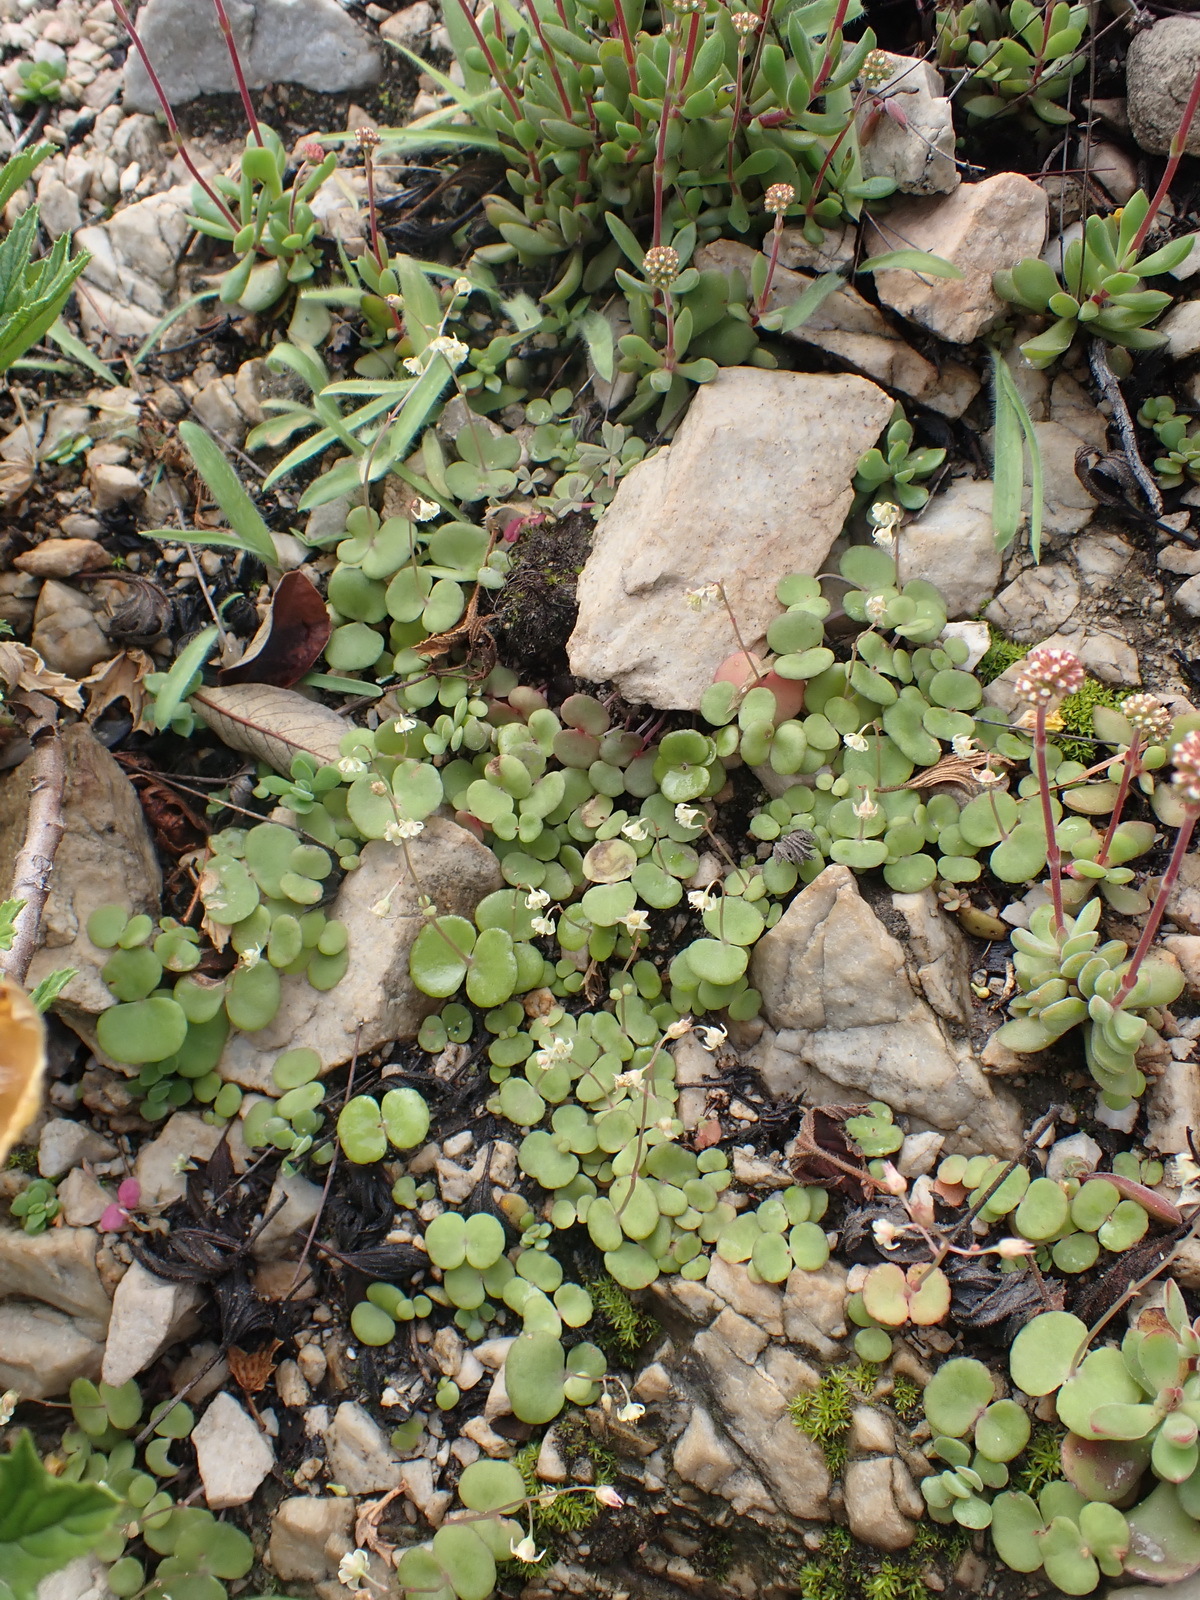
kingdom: Plantae
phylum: Tracheophyta
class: Magnoliopsida
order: Saxifragales
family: Crassulaceae
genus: Crassula
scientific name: Crassula umbella
